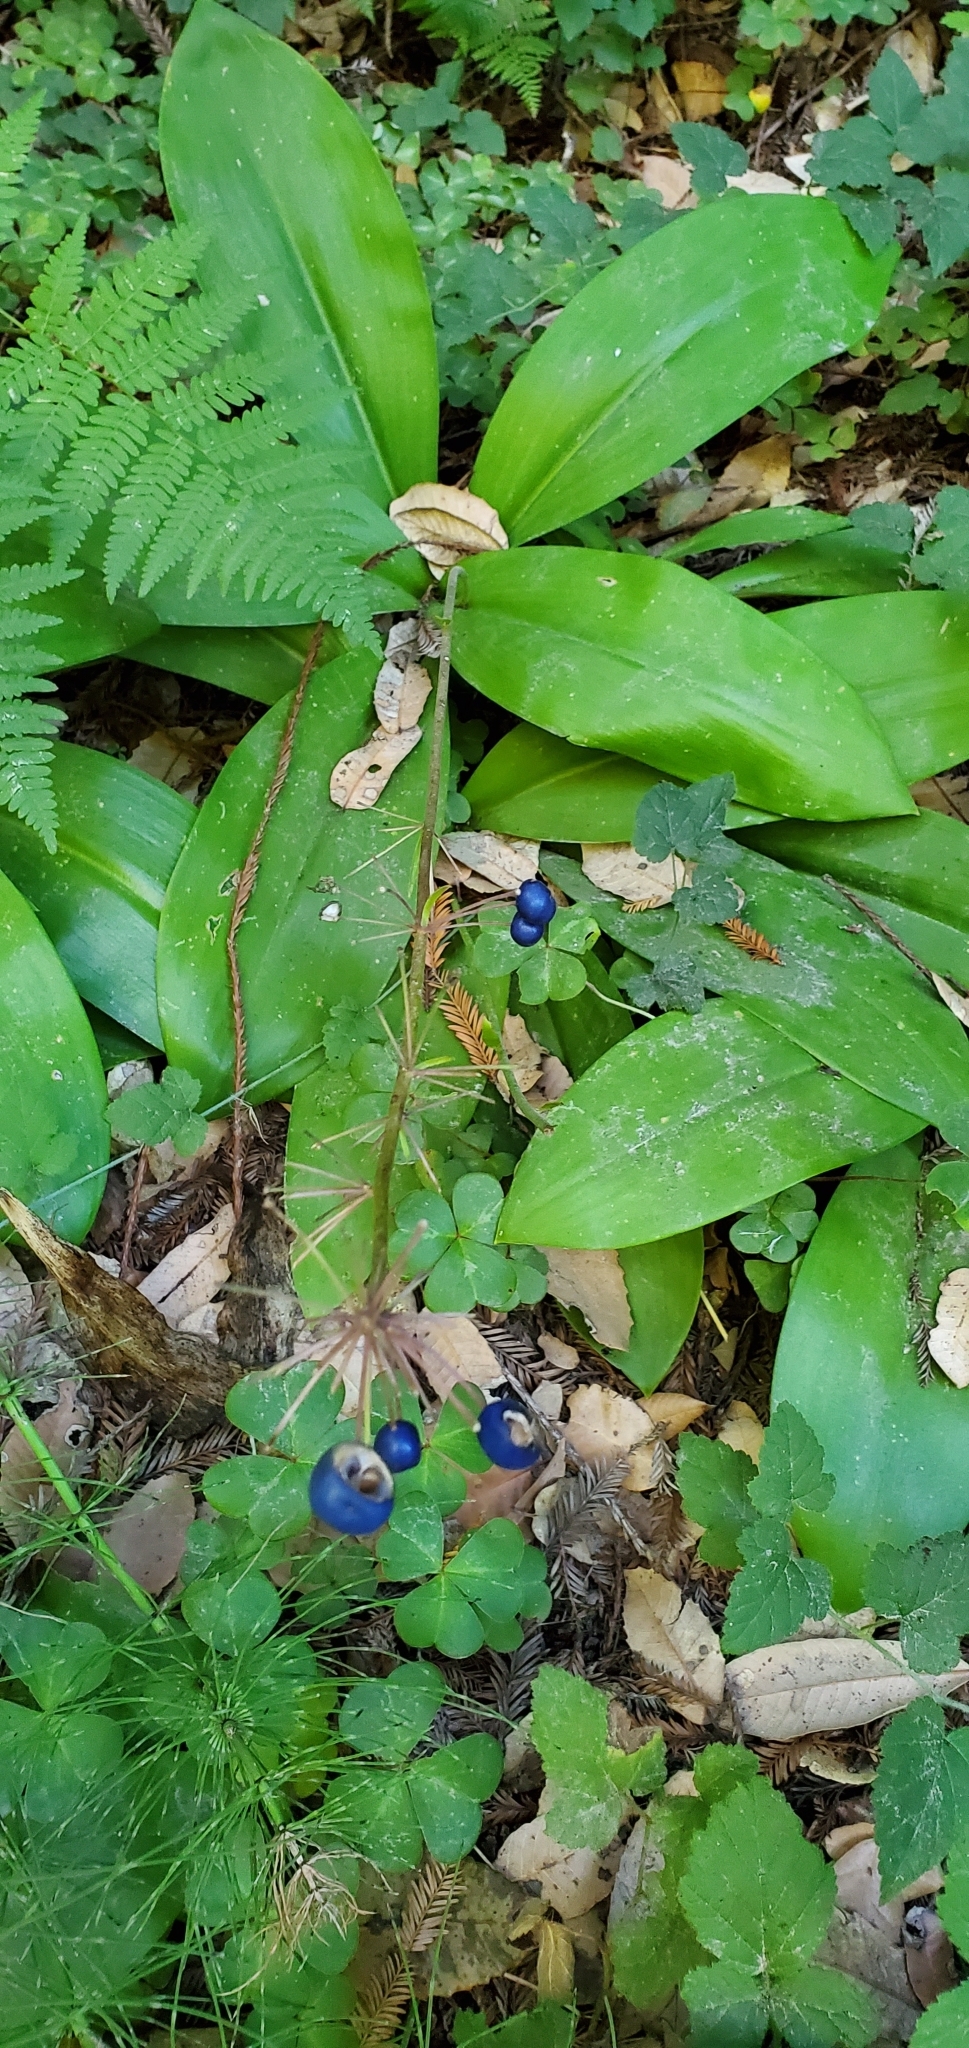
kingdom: Plantae
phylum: Tracheophyta
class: Liliopsida
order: Liliales
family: Liliaceae
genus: Clintonia
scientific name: Clintonia andrewsiana
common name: Red clintonia
